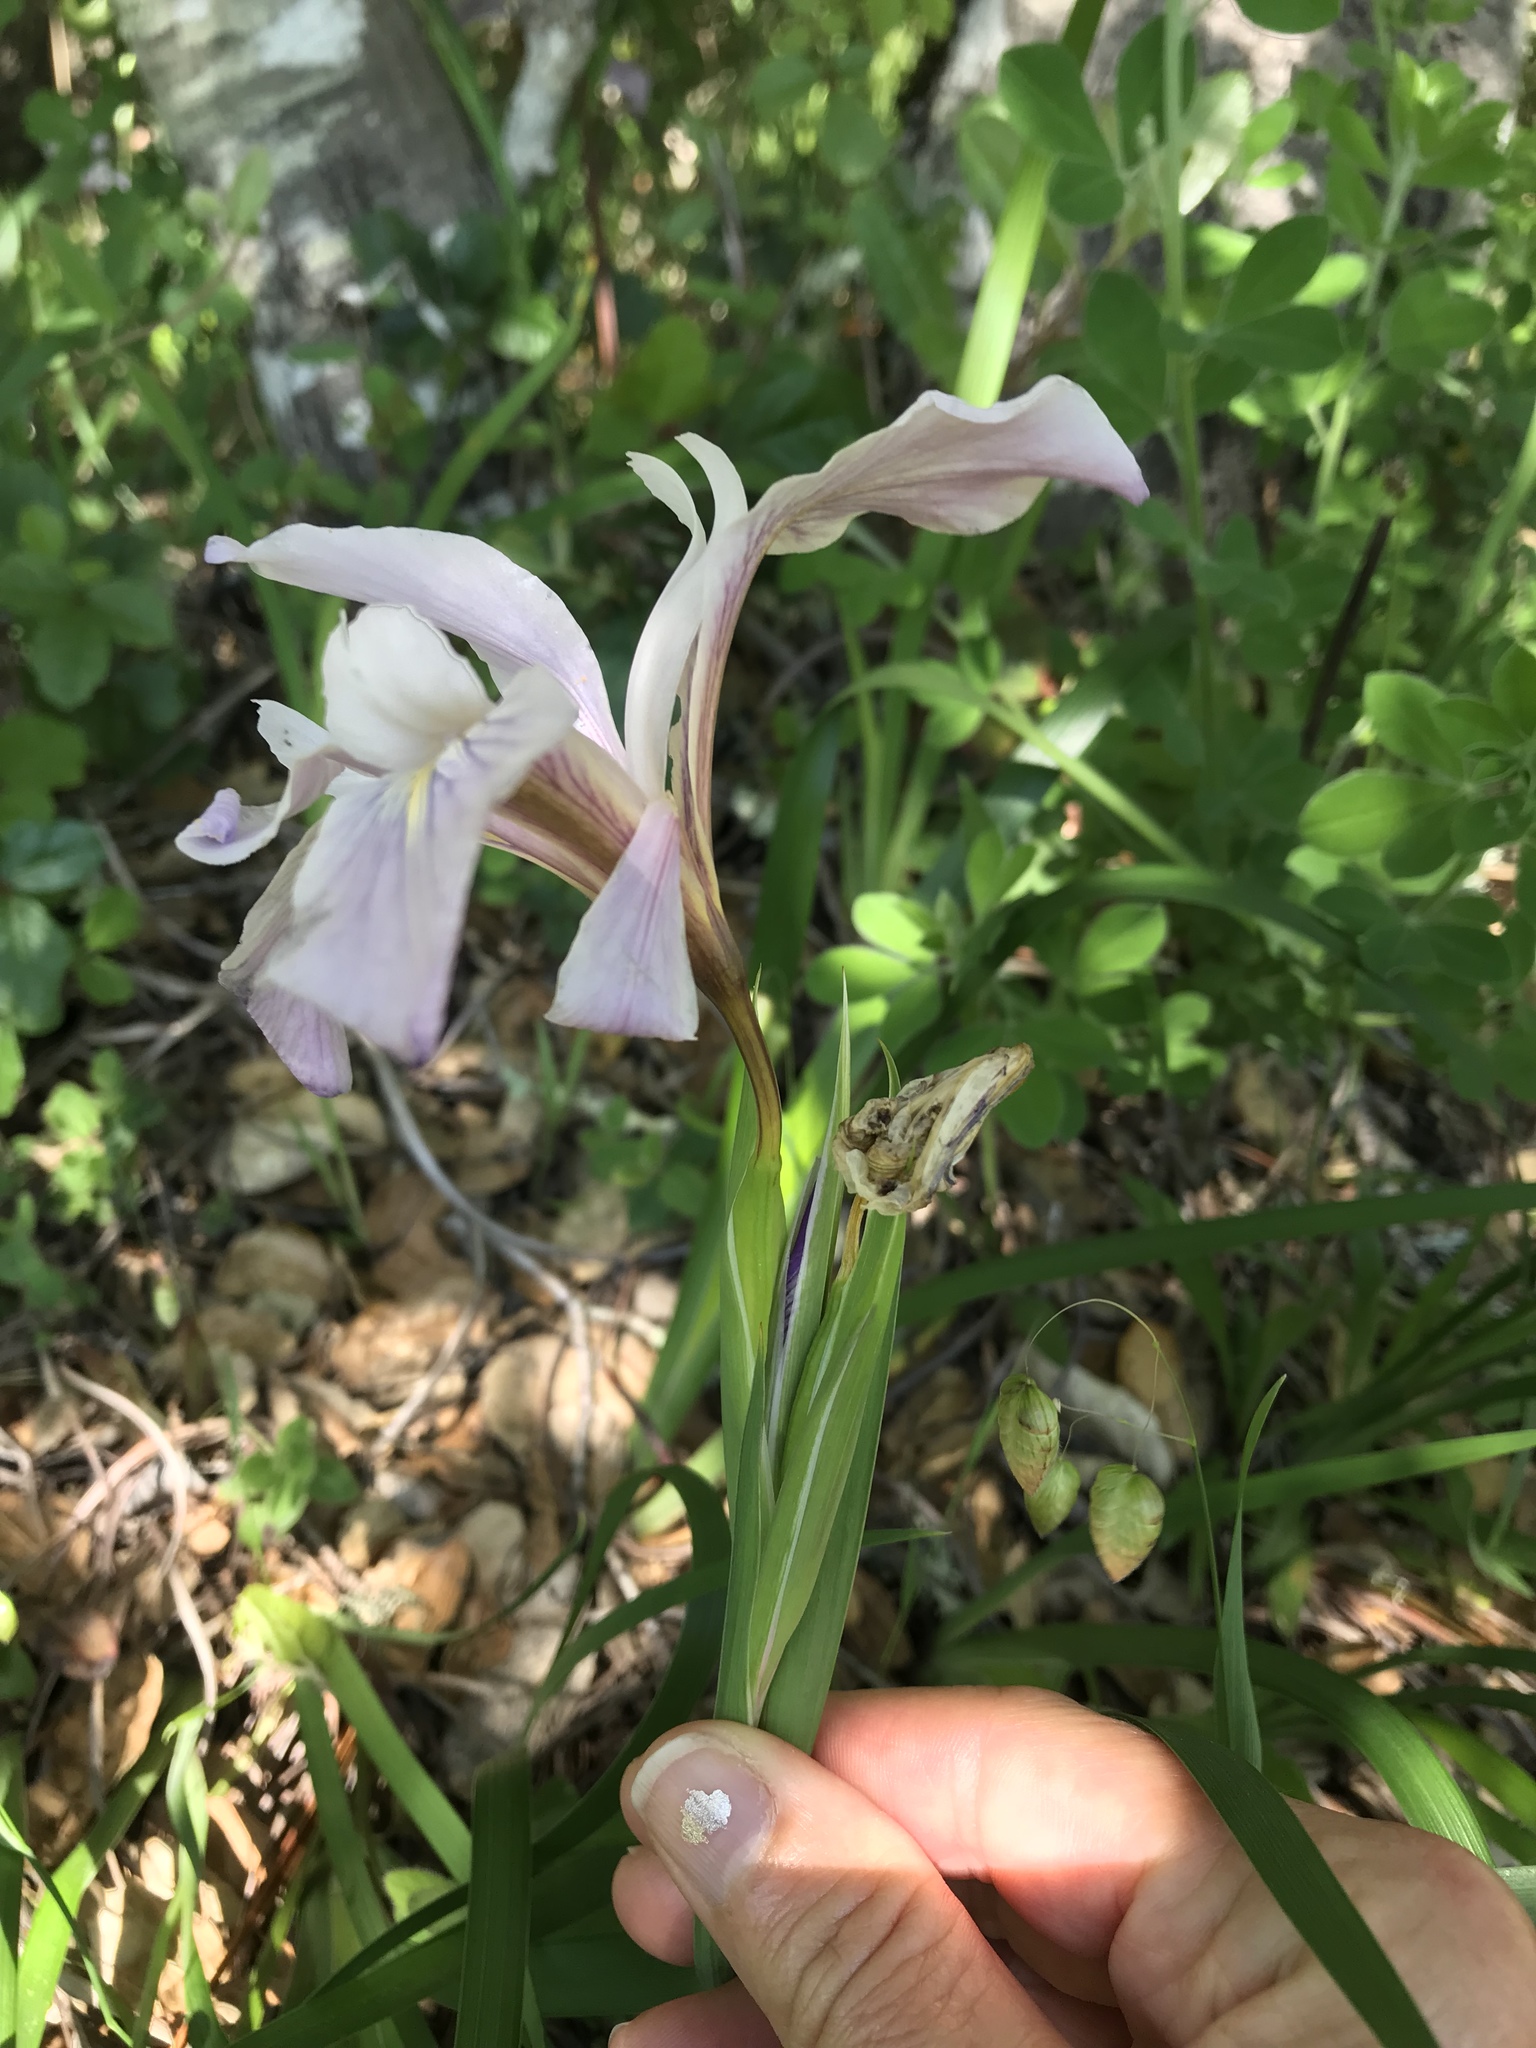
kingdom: Plantae
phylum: Tracheophyta
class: Liliopsida
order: Asparagales
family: Iridaceae
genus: Iris
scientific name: Iris douglasiana
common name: Marin iris
